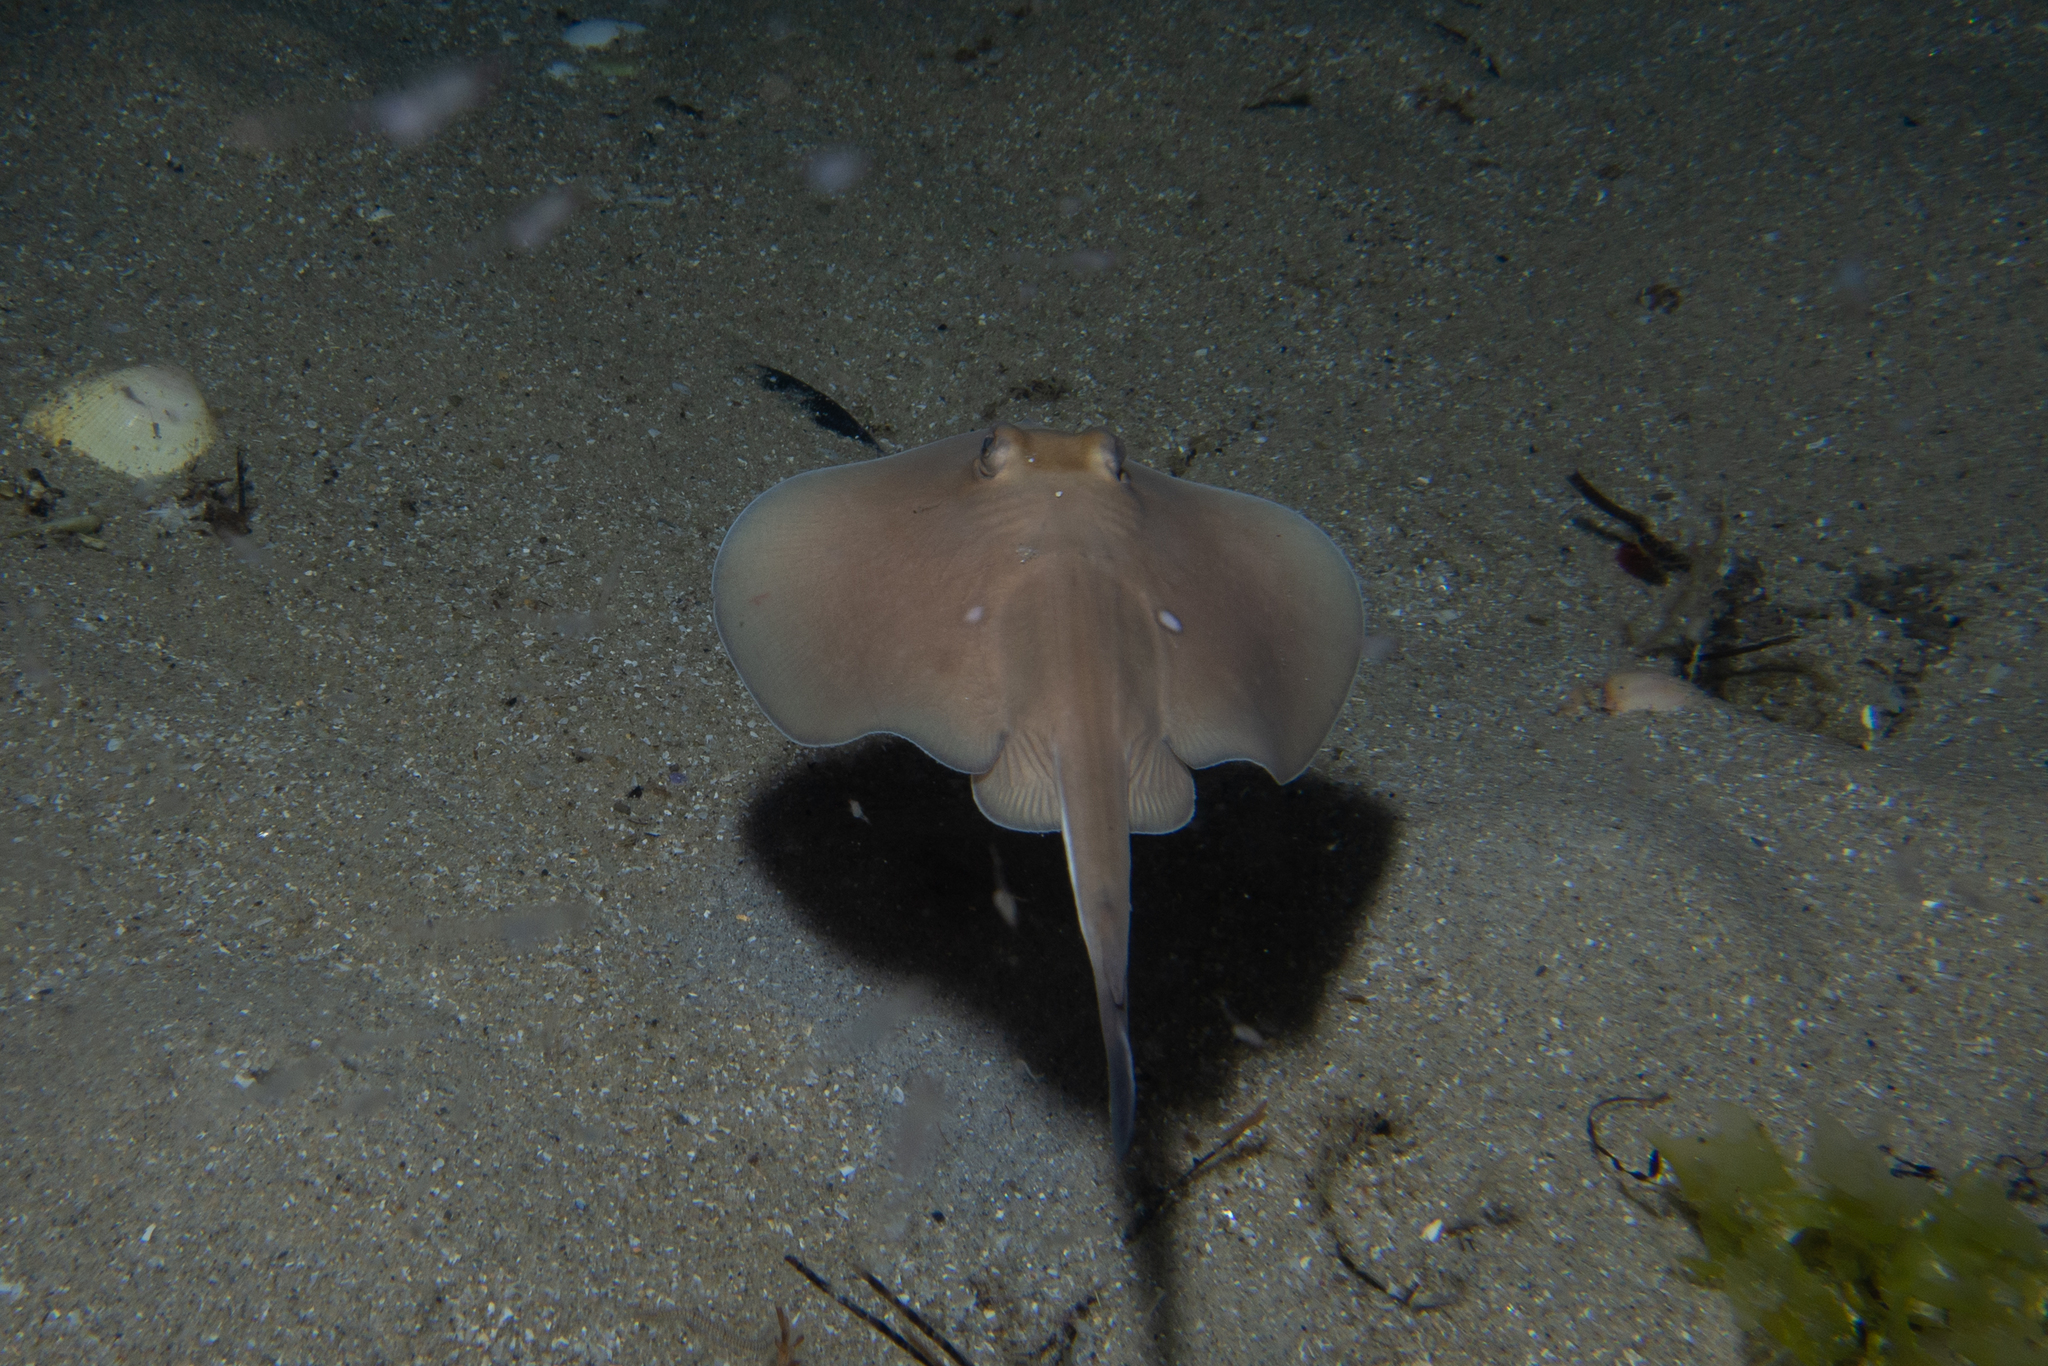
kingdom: Animalia
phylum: Chordata
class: Elasmobranchii
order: Myliobatiformes
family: Urolophidae
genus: Urolophus
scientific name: Urolophus paucimaculatus
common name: Sparsely-spotted stingaree
